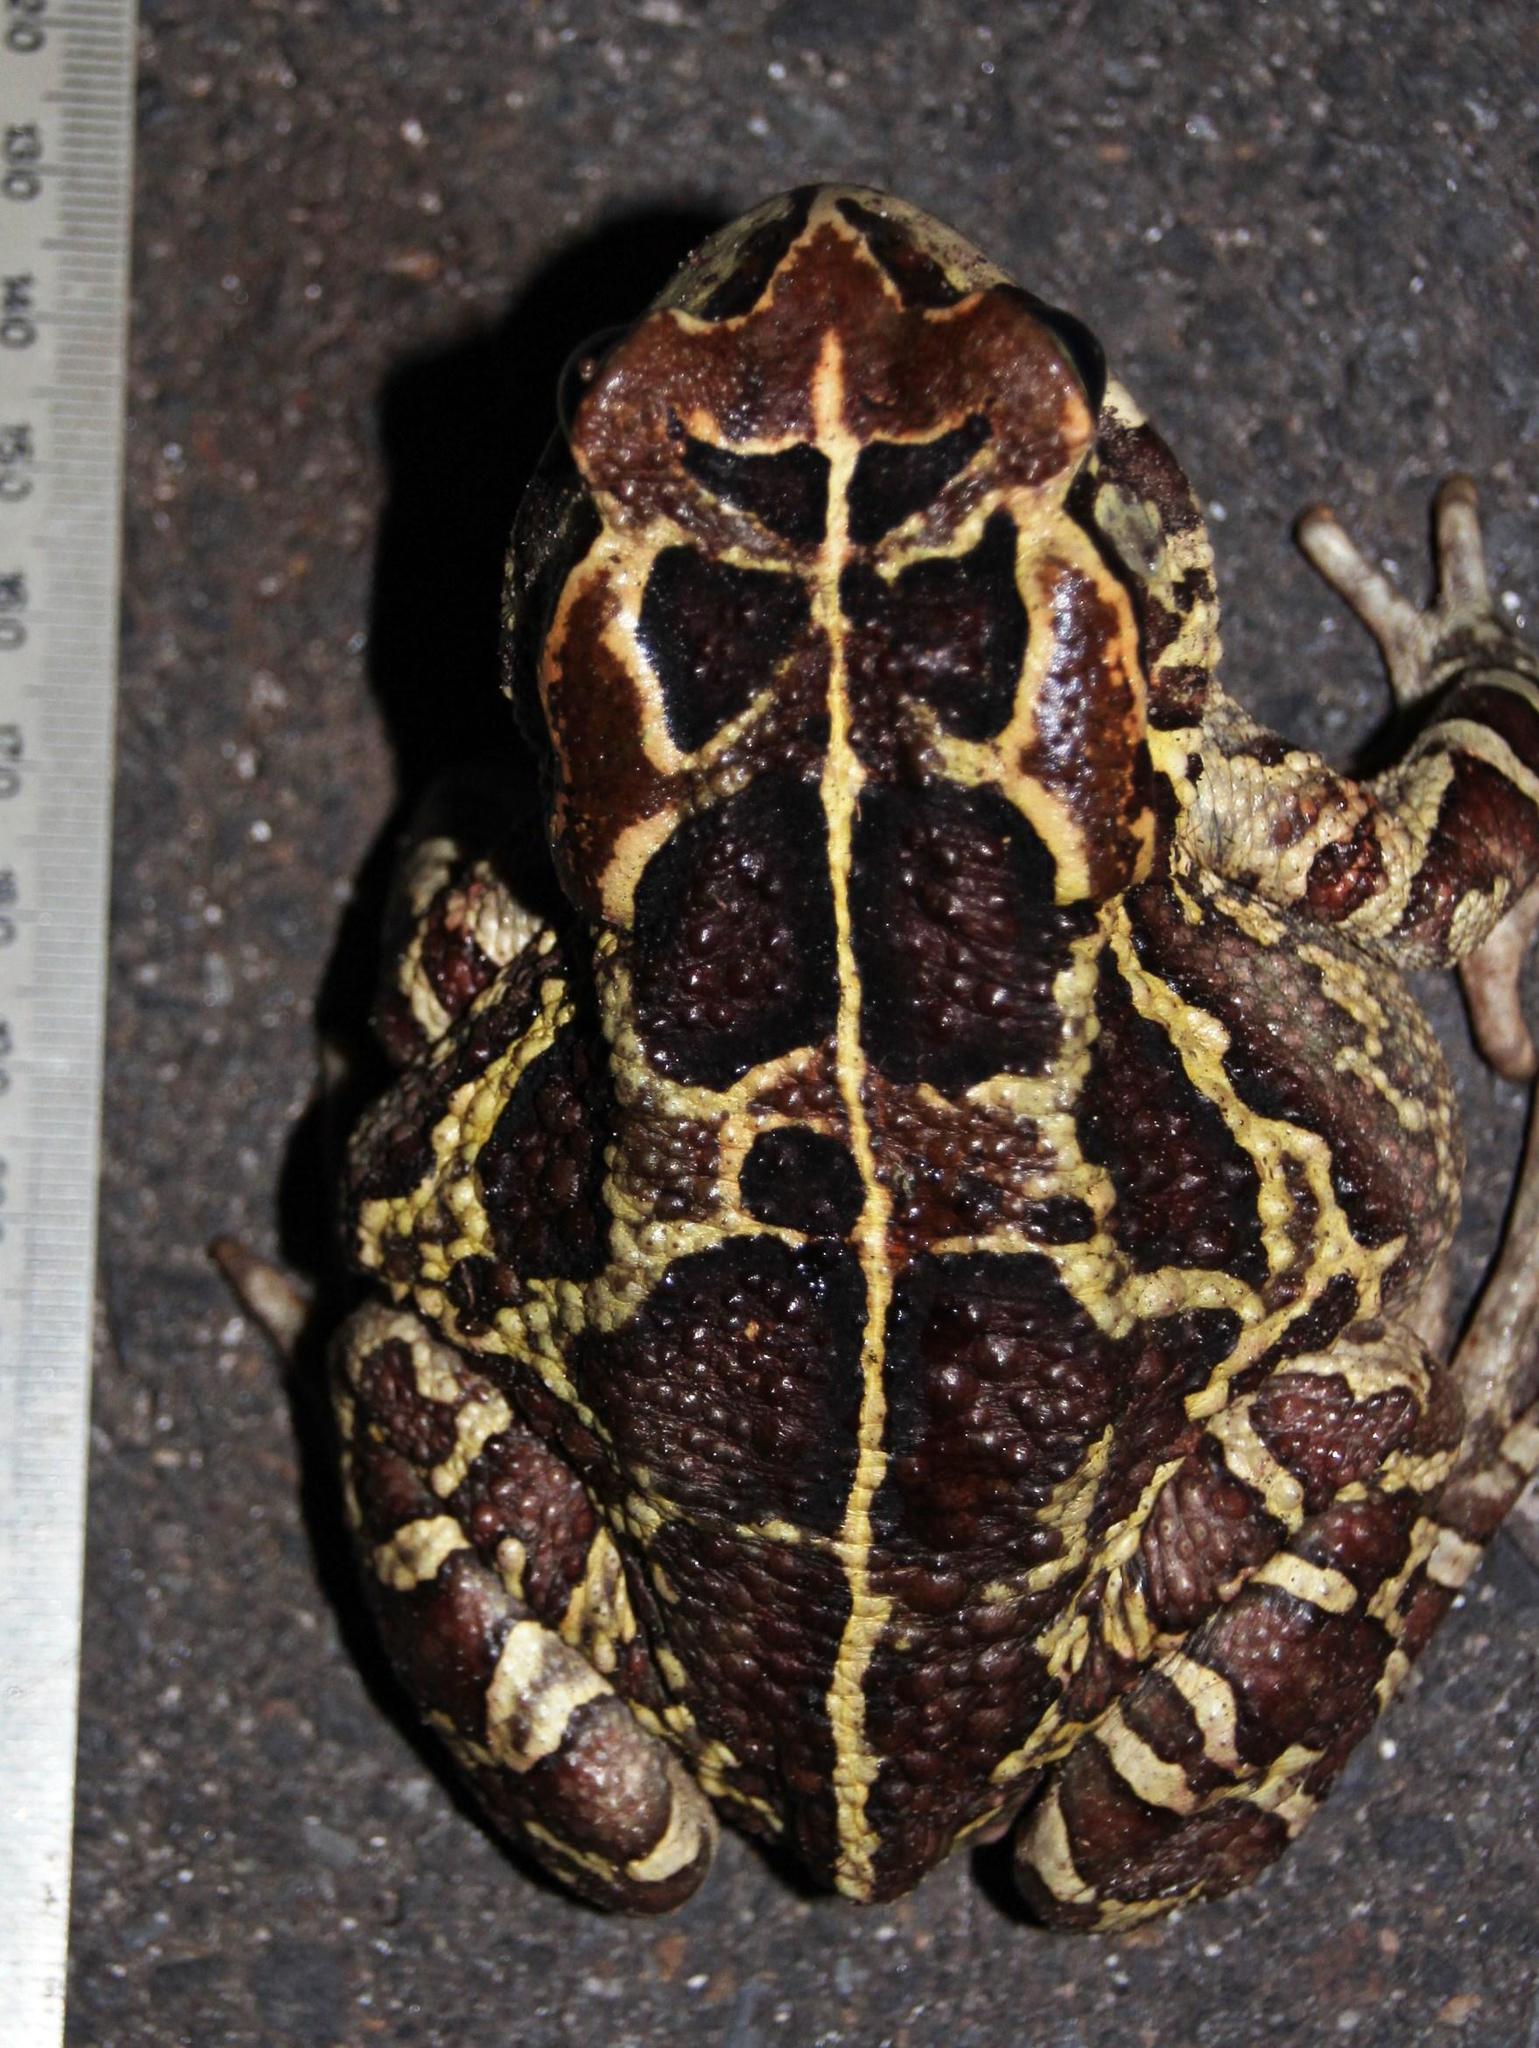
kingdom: Animalia
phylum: Chordata
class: Amphibia
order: Anura
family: Bufonidae
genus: Sclerophrys
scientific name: Sclerophrys pantherina
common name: Panther toad
